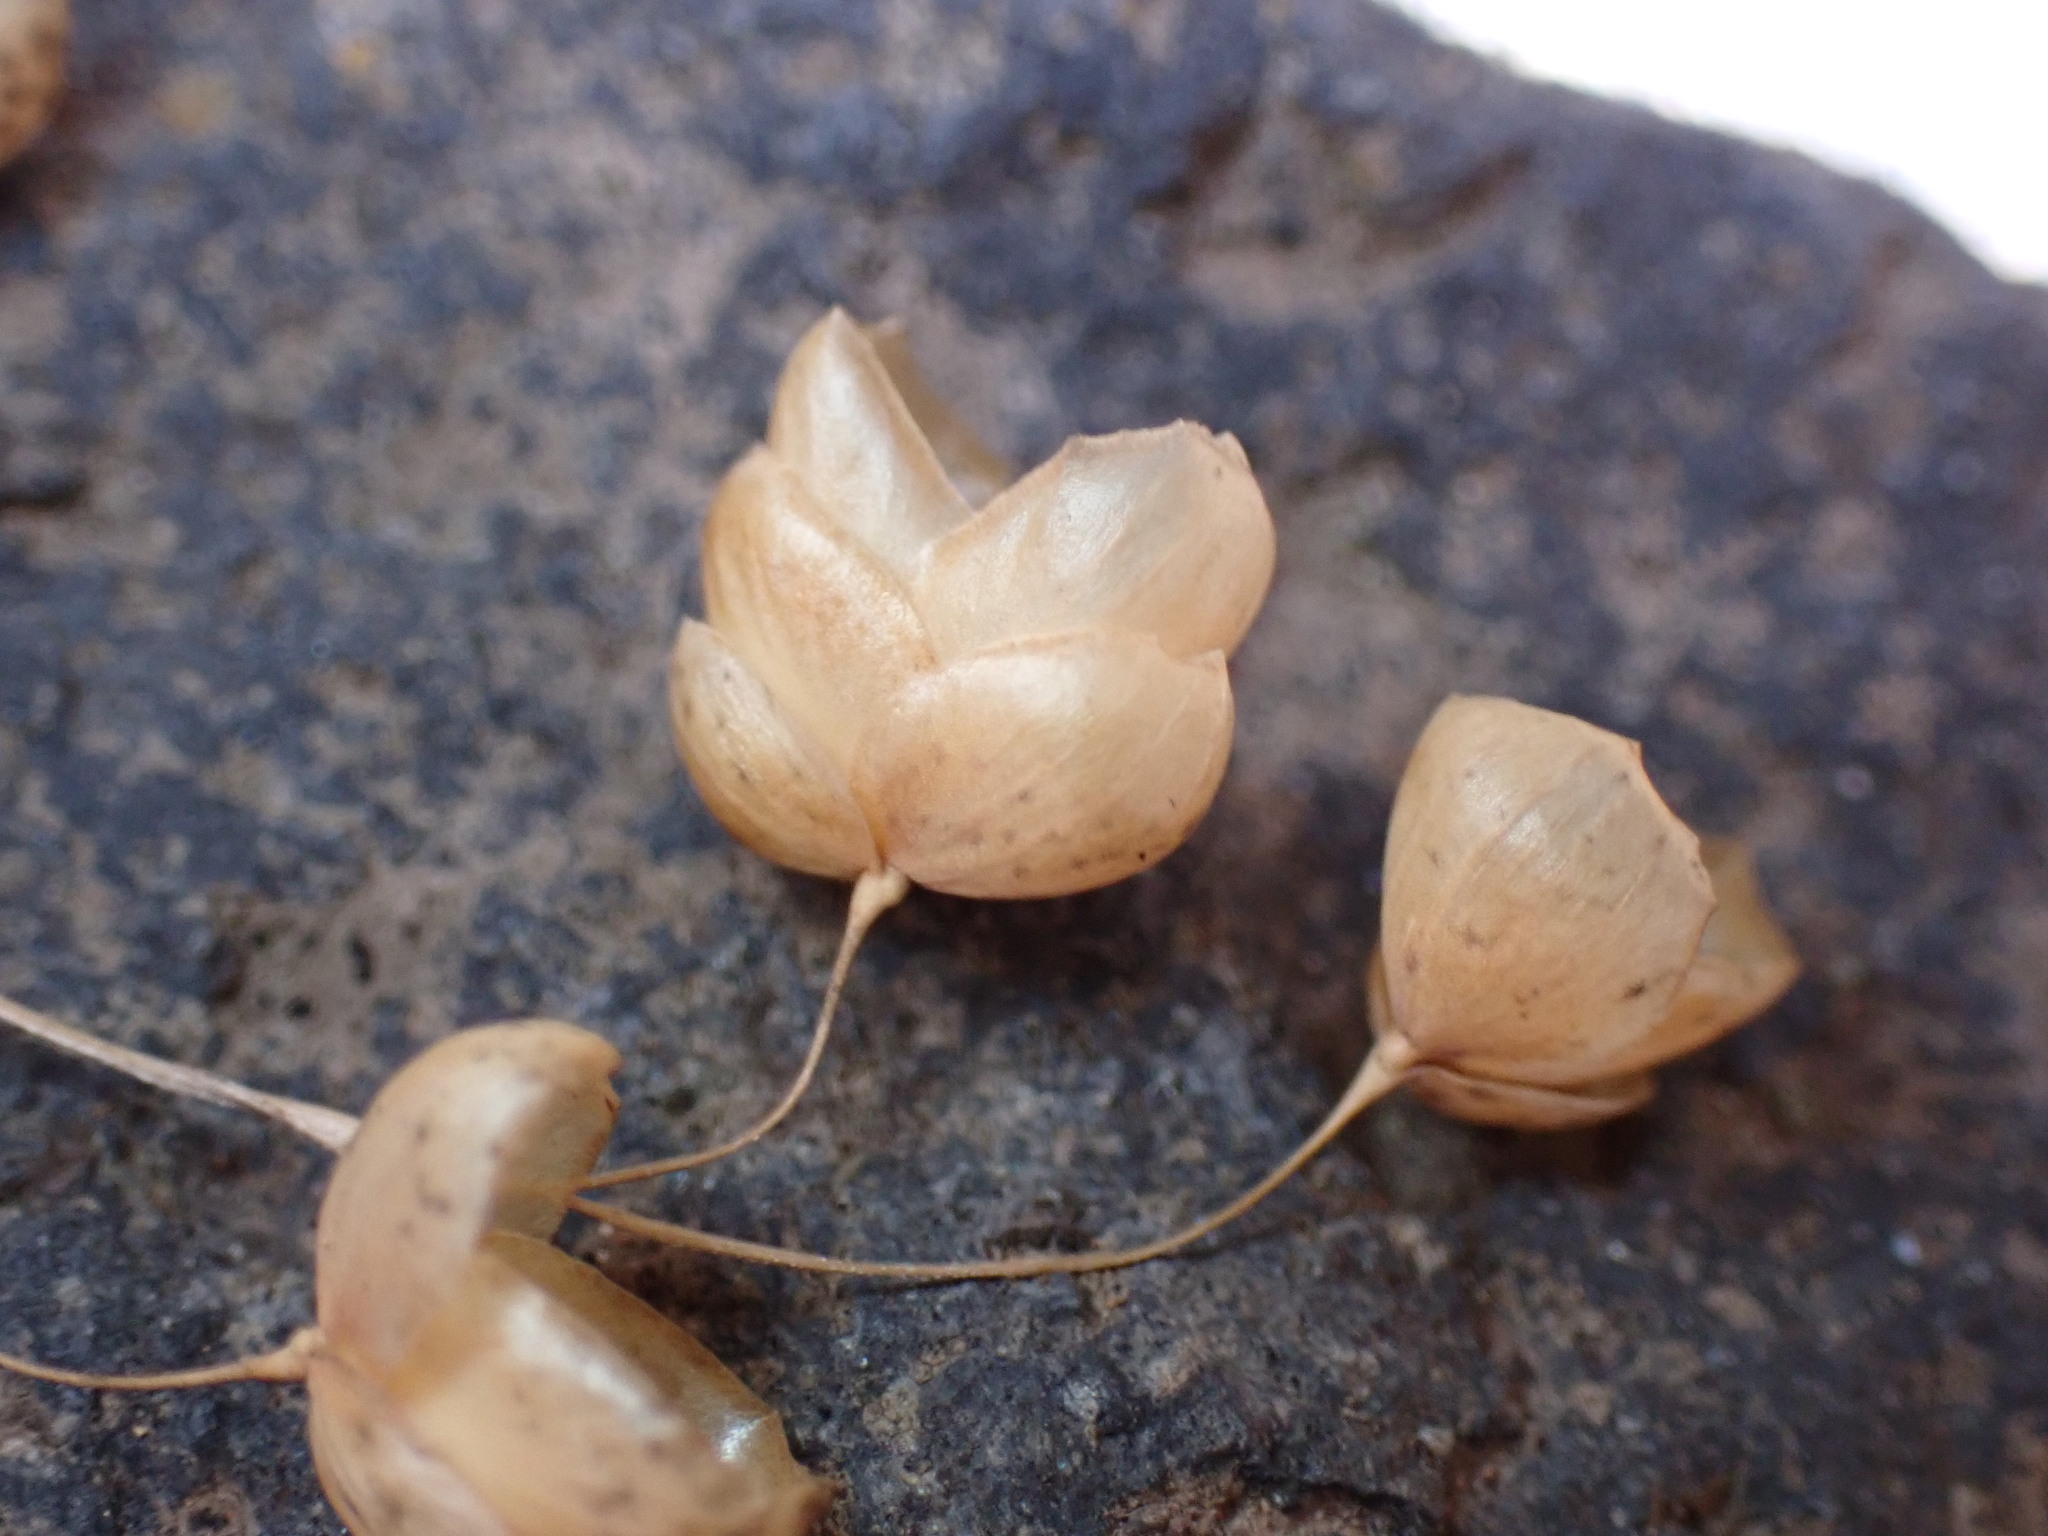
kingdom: Plantae
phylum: Tracheophyta
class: Liliopsida
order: Poales
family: Poaceae
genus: Briza
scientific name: Briza maxima
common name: Big quakinggrass
